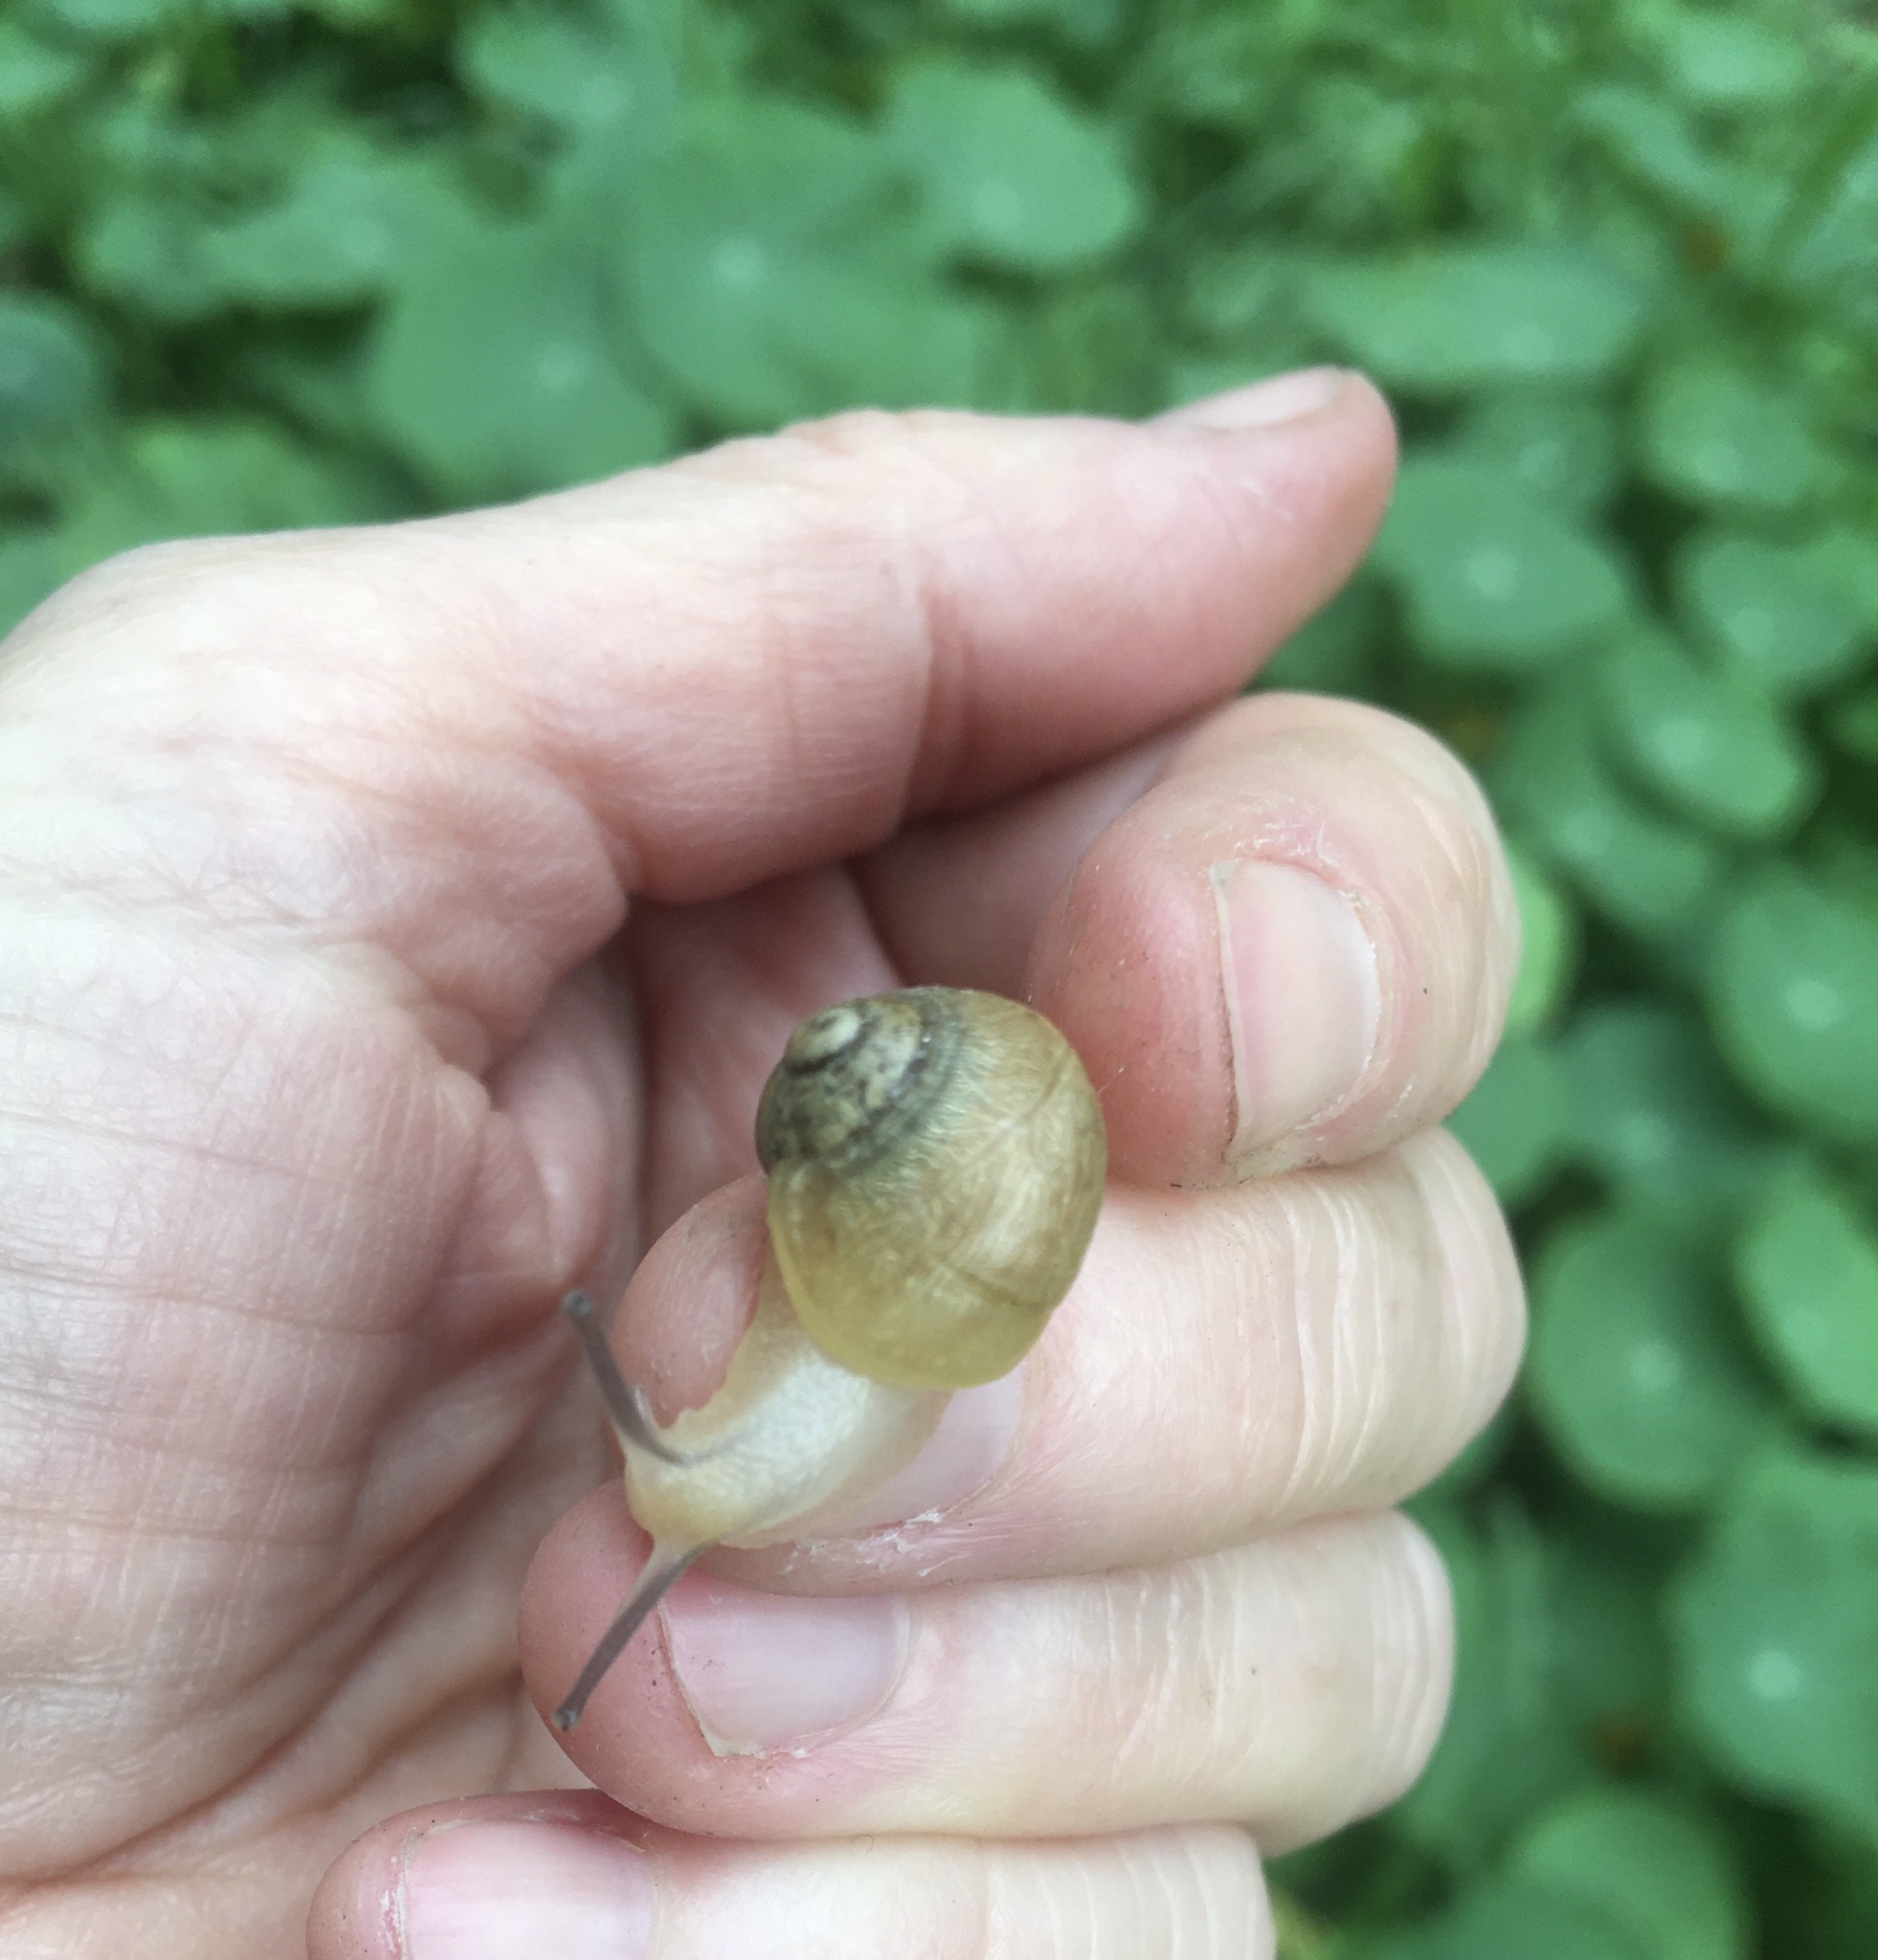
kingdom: Animalia
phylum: Mollusca
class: Gastropoda
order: Stylommatophora
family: Helicidae
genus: Cornu
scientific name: Cornu aspersum
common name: Brown garden snail
